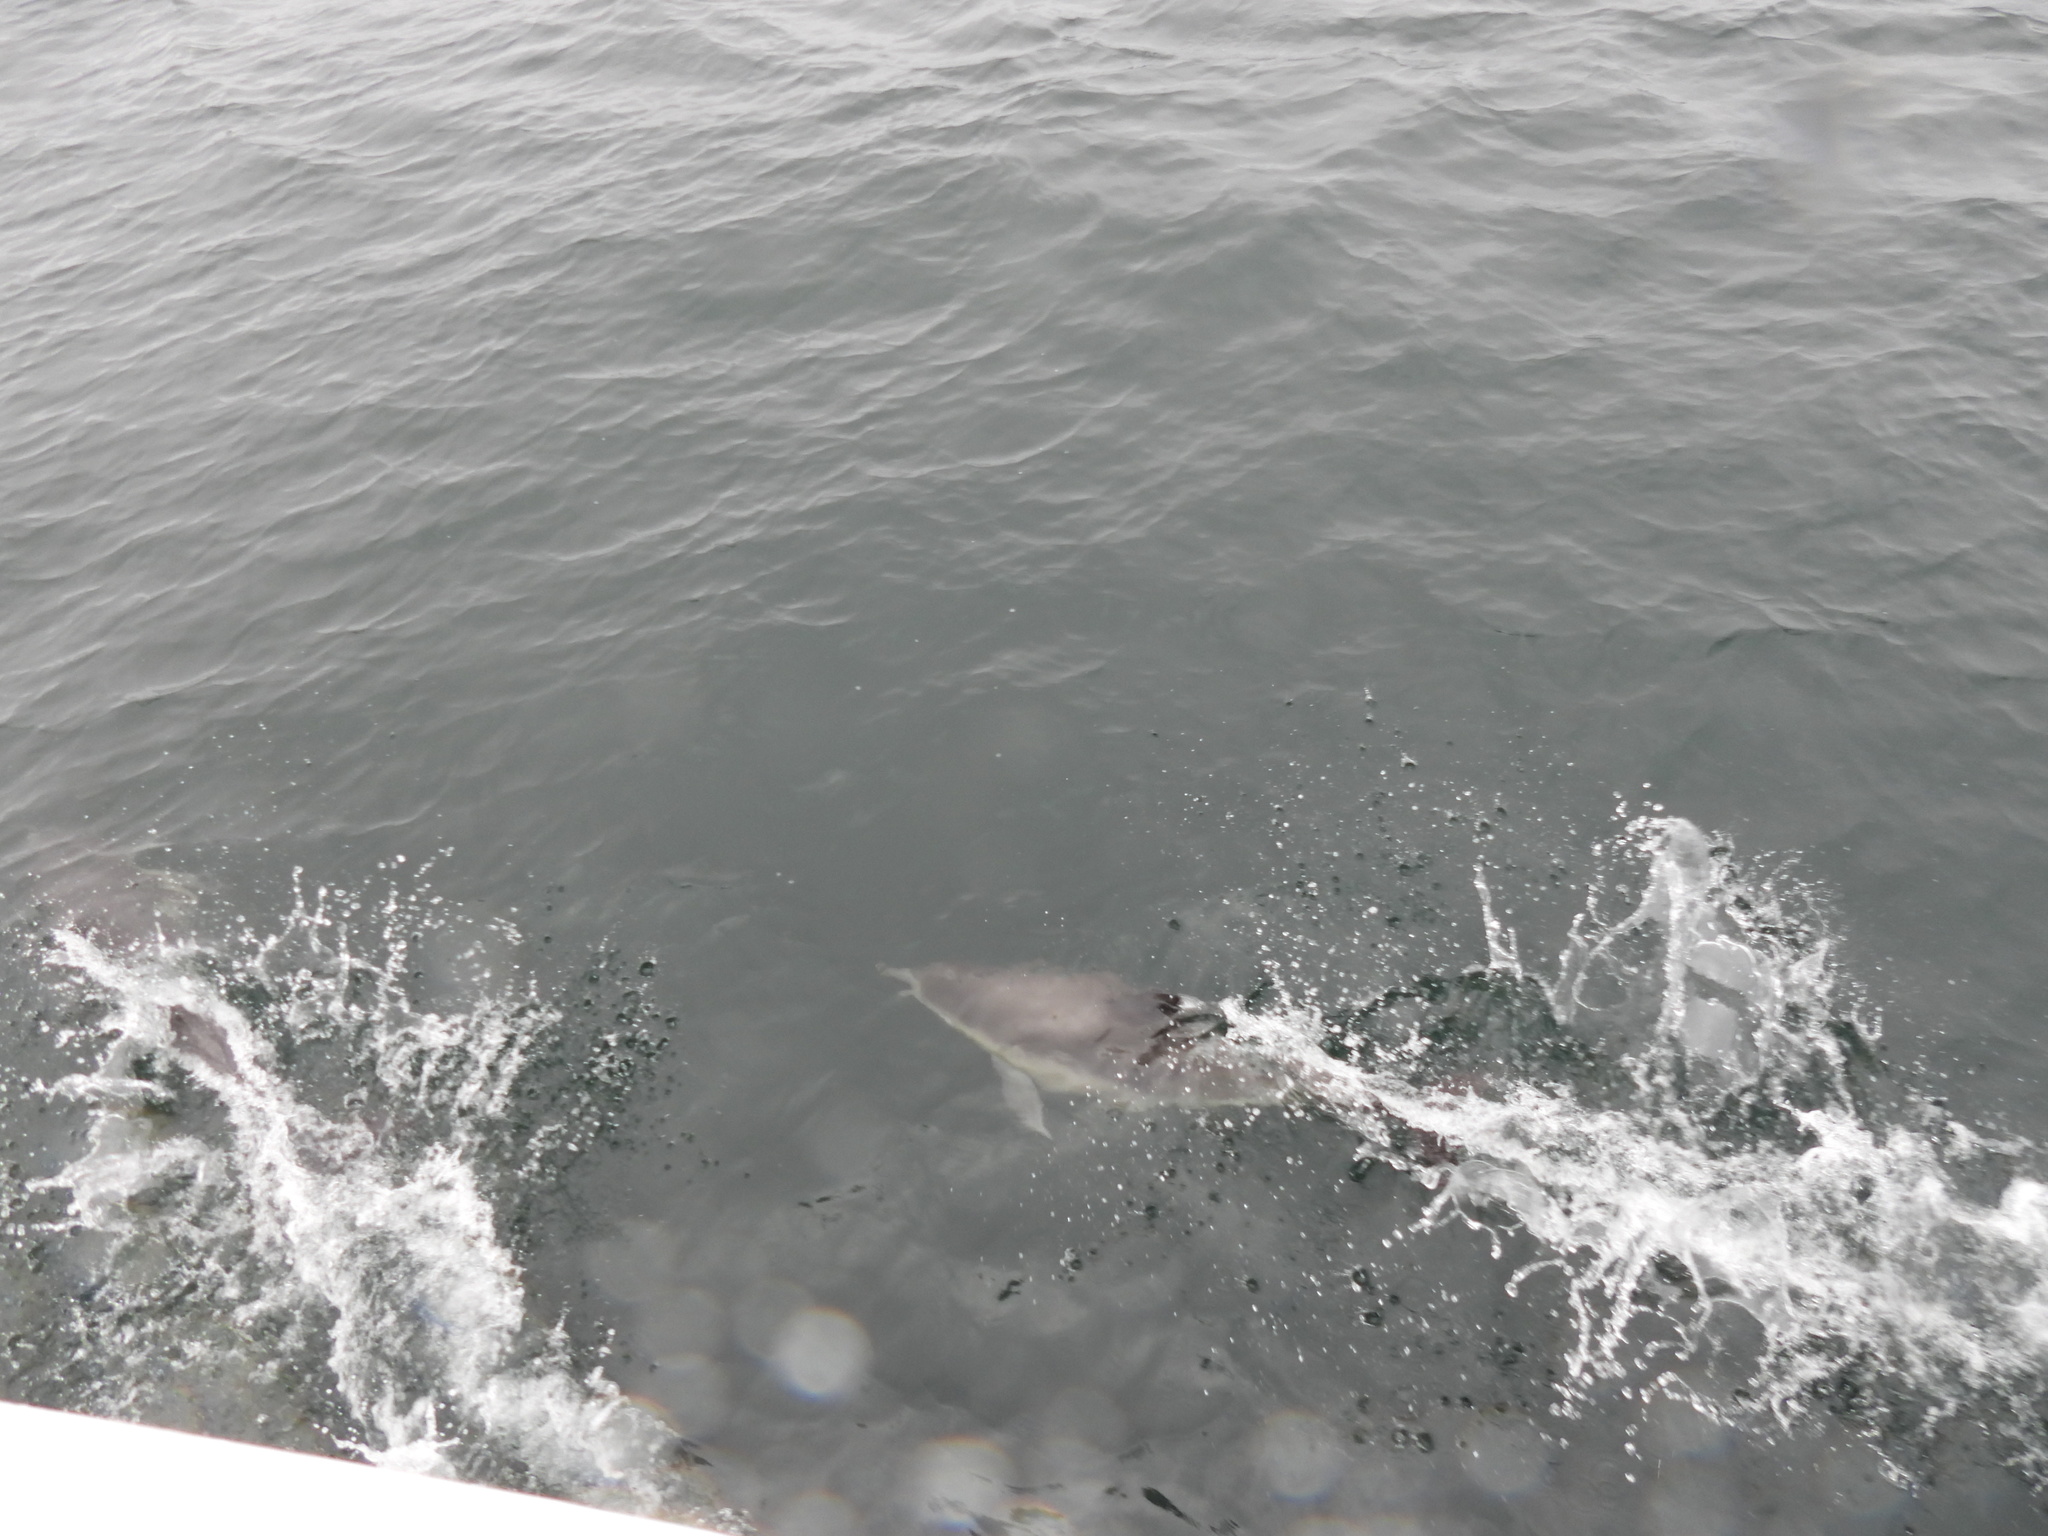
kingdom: Animalia
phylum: Chordata
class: Mammalia
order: Cetacea
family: Delphinidae
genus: Delphinus
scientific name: Delphinus delphis
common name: Common dolphin
